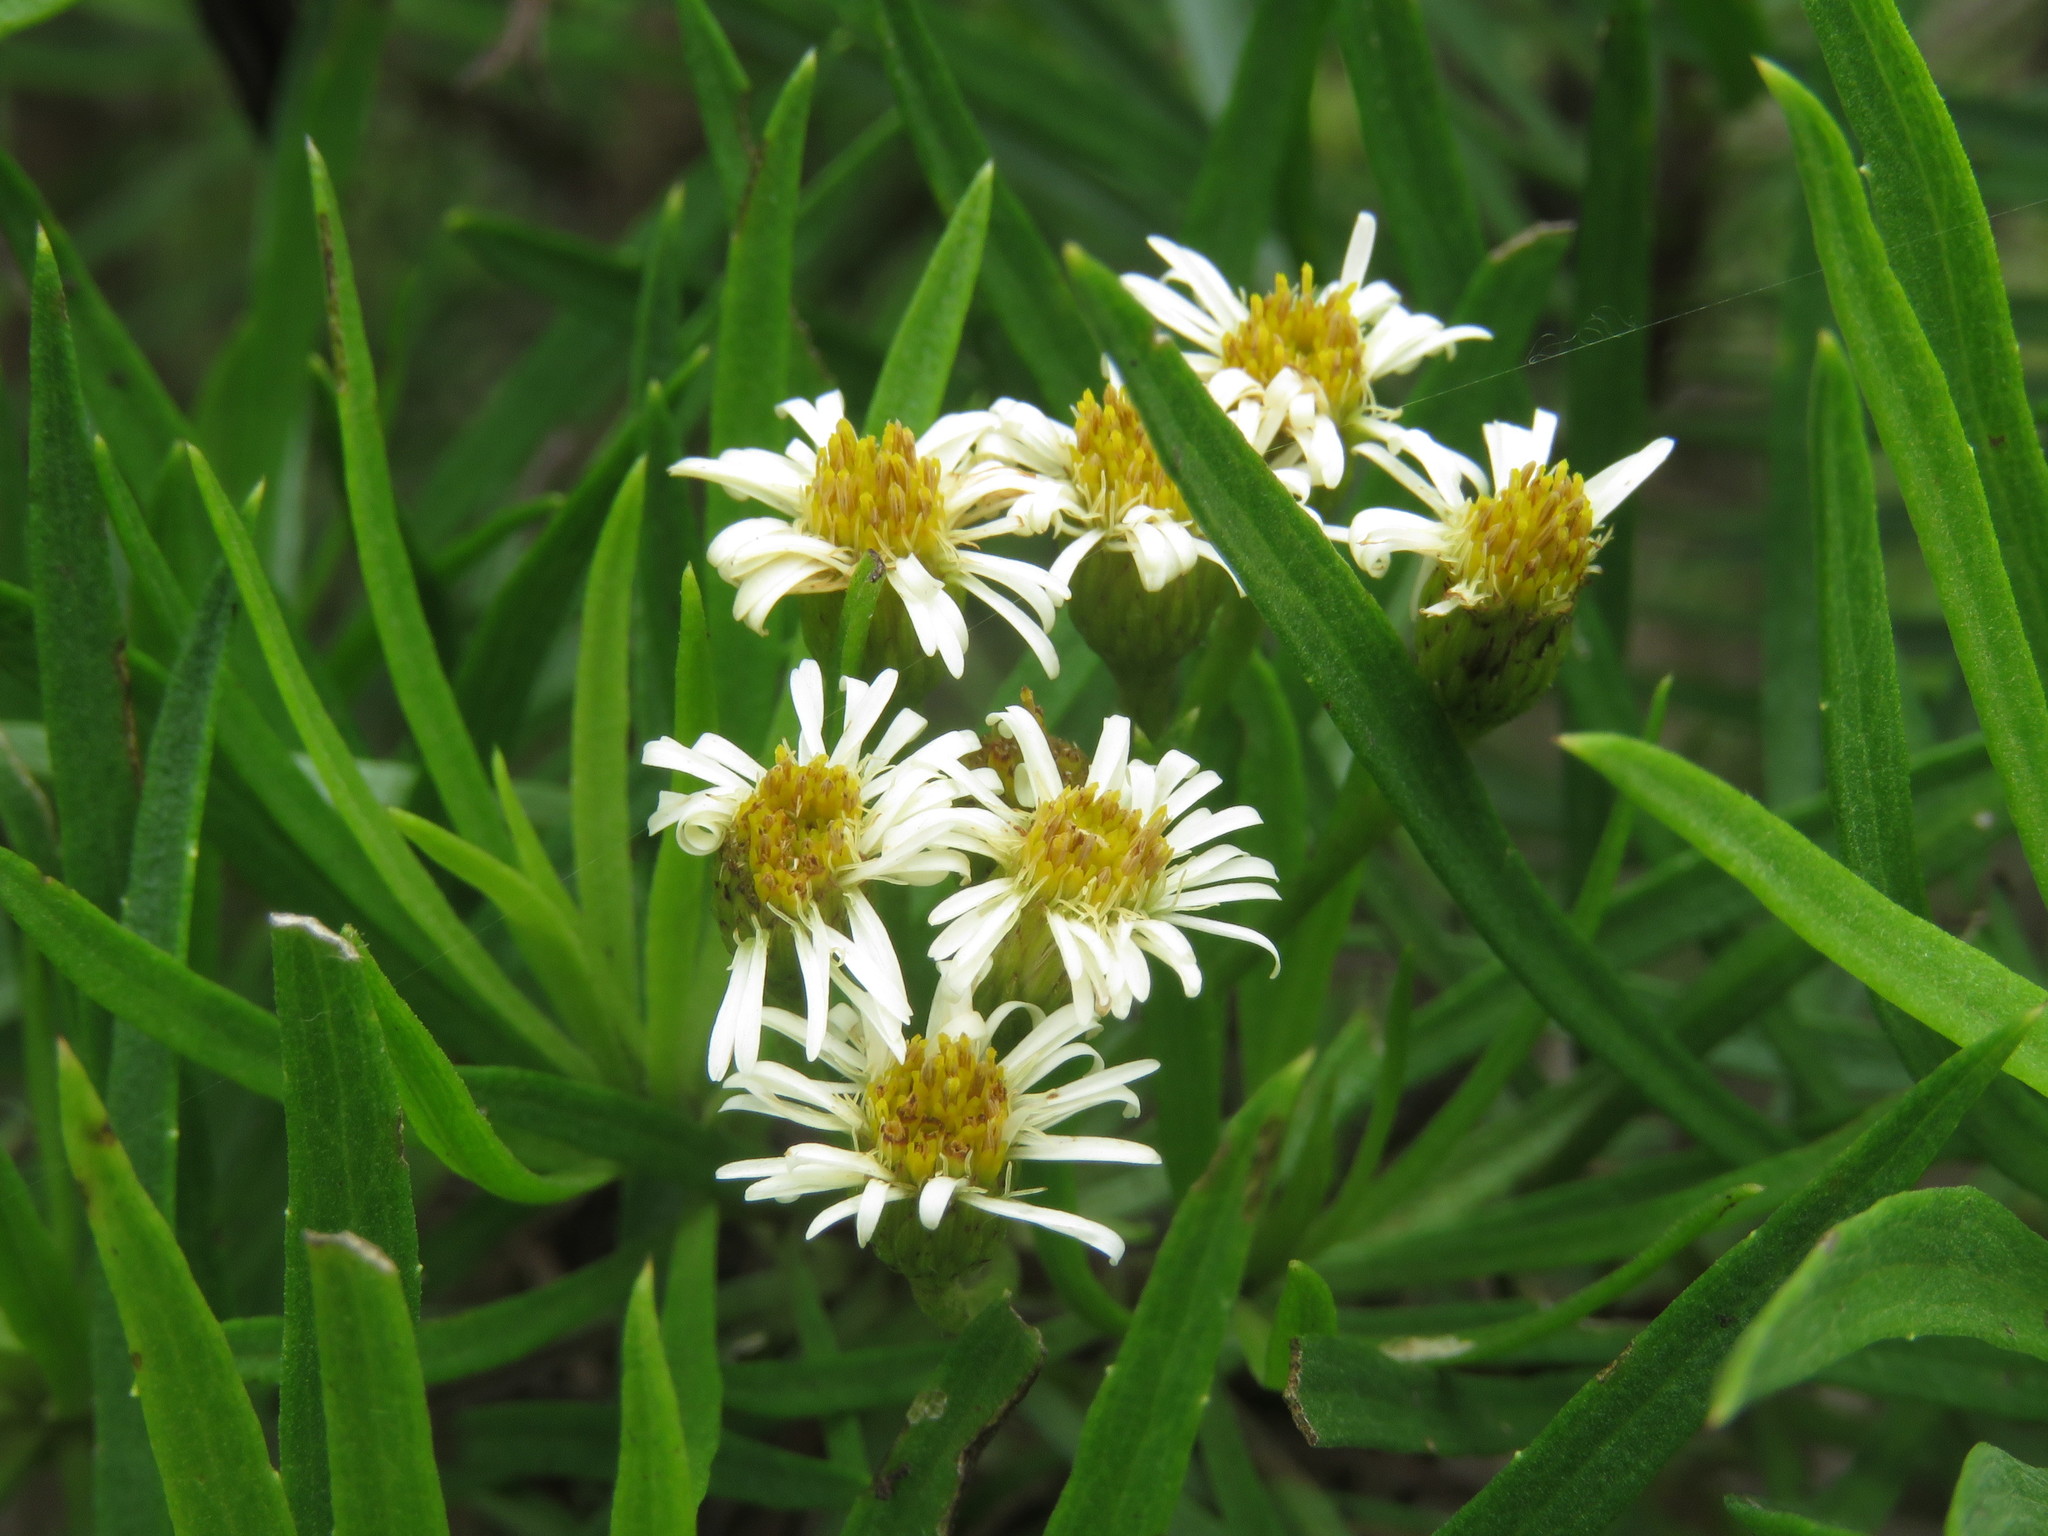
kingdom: Plantae
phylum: Tracheophyta
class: Magnoliopsida
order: Asterales
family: Asteraceae
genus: Erigeron
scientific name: Erigeron tenuifolius
